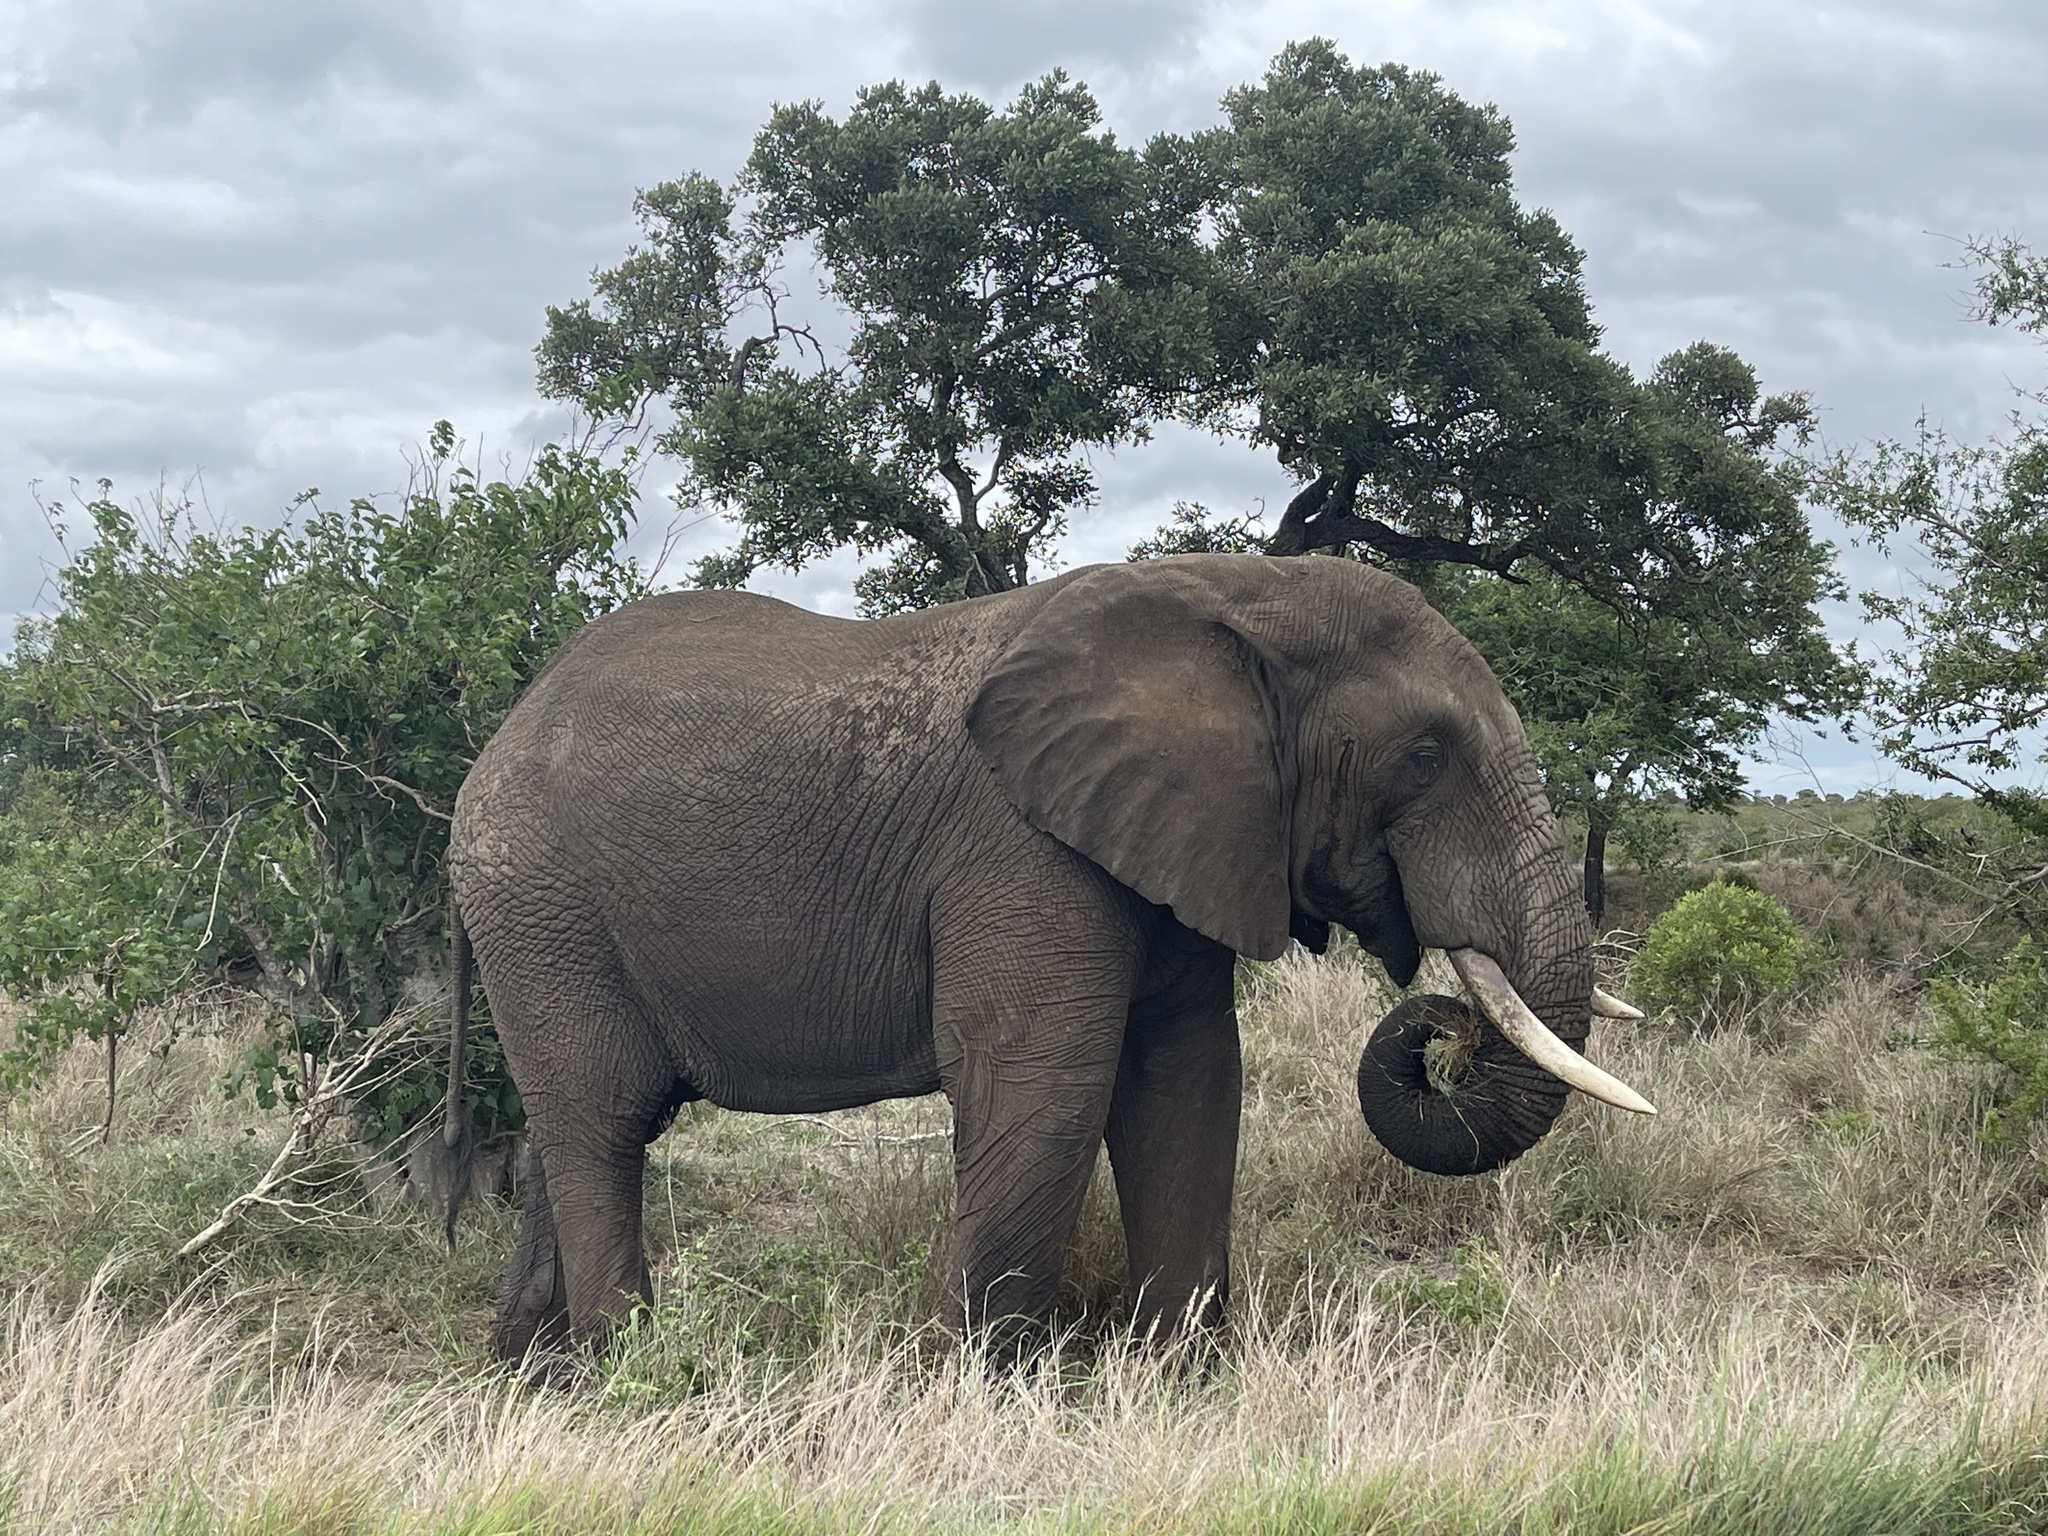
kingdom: Animalia
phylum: Chordata
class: Mammalia
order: Proboscidea
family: Elephantidae
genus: Loxodonta
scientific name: Loxodonta africana
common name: African elephant
